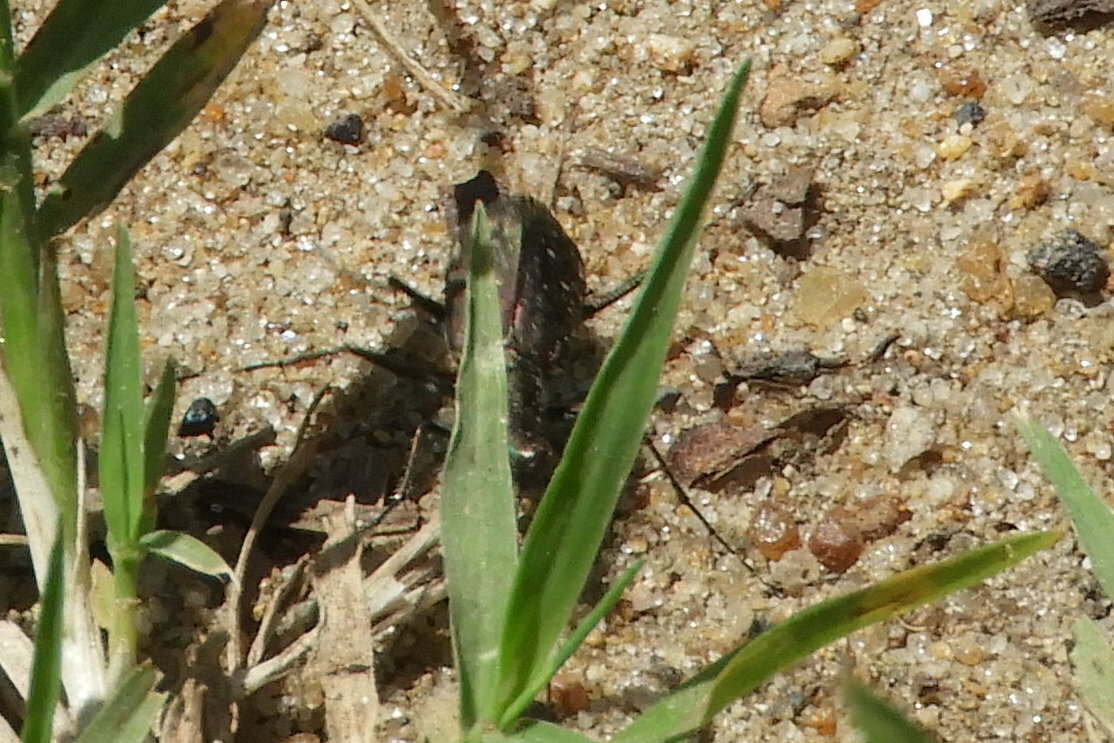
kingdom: Animalia
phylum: Arthropoda
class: Insecta
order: Coleoptera
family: Carabidae
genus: Cicindela
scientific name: Cicindela punctulata
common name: Punctured tiger beetle
